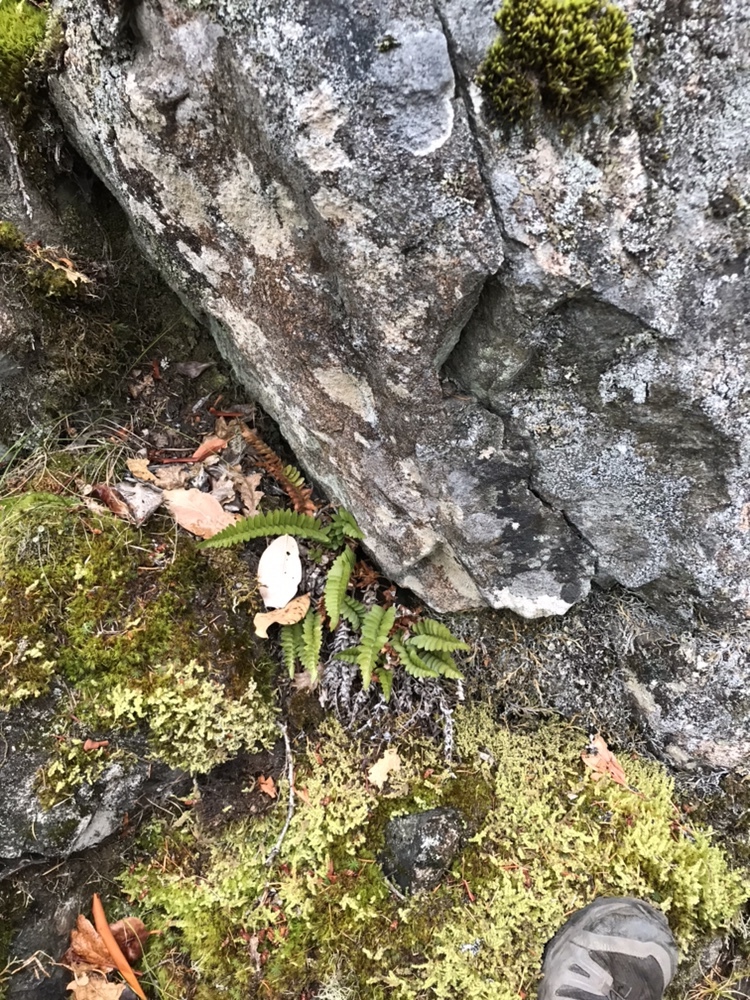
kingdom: Plantae
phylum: Tracheophyta
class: Polypodiopsida
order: Polypodiales
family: Dryopteridaceae
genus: Polystichum
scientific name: Polystichum imbricans
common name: Dwarf western sword fern
